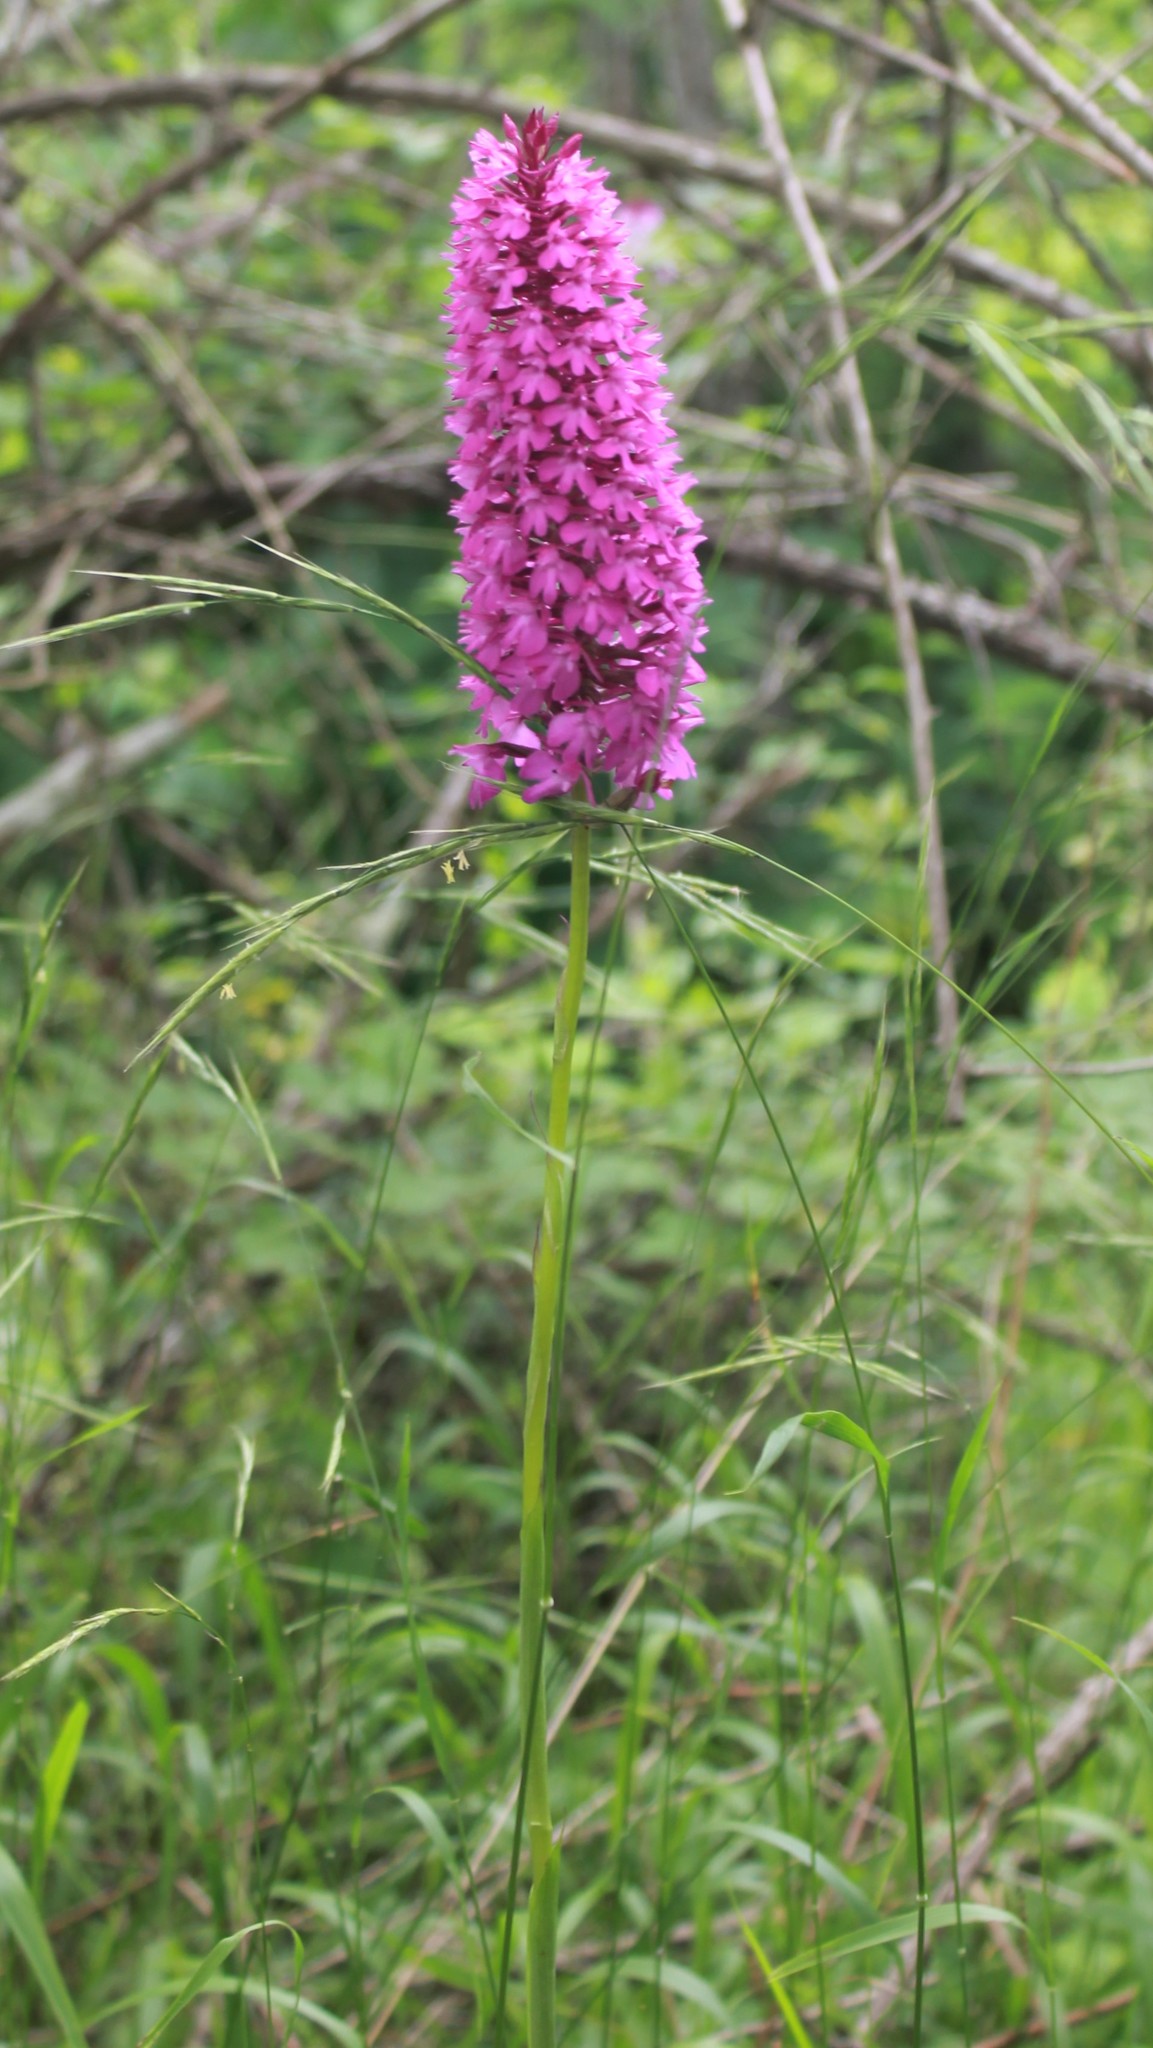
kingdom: Plantae
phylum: Tracheophyta
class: Liliopsida
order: Asparagales
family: Orchidaceae
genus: Anacamptis
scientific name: Anacamptis pyramidalis
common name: Pyramidal orchid
